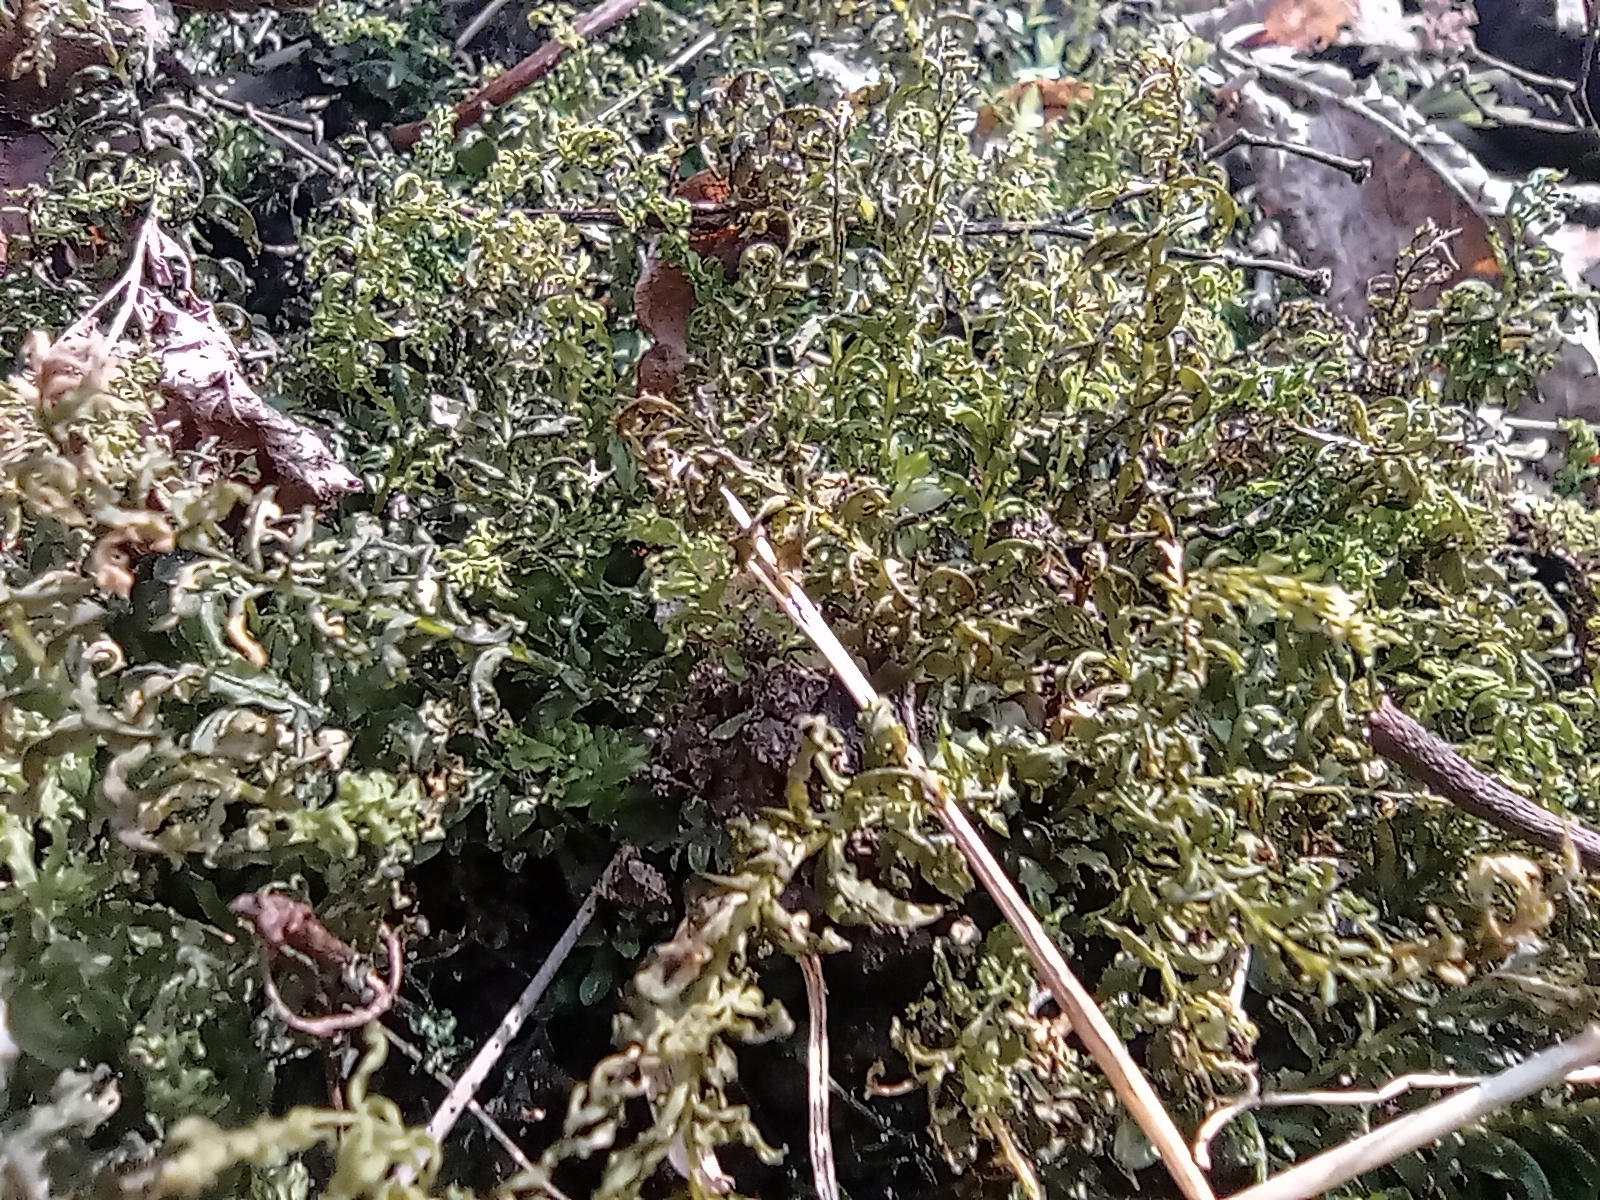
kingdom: Plantae
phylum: Bryophyta
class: Bryopsida
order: Bryales
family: Mniaceae
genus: Plagiomnium
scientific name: Plagiomnium undulatum
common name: Hart's-tongue thyme-moss
